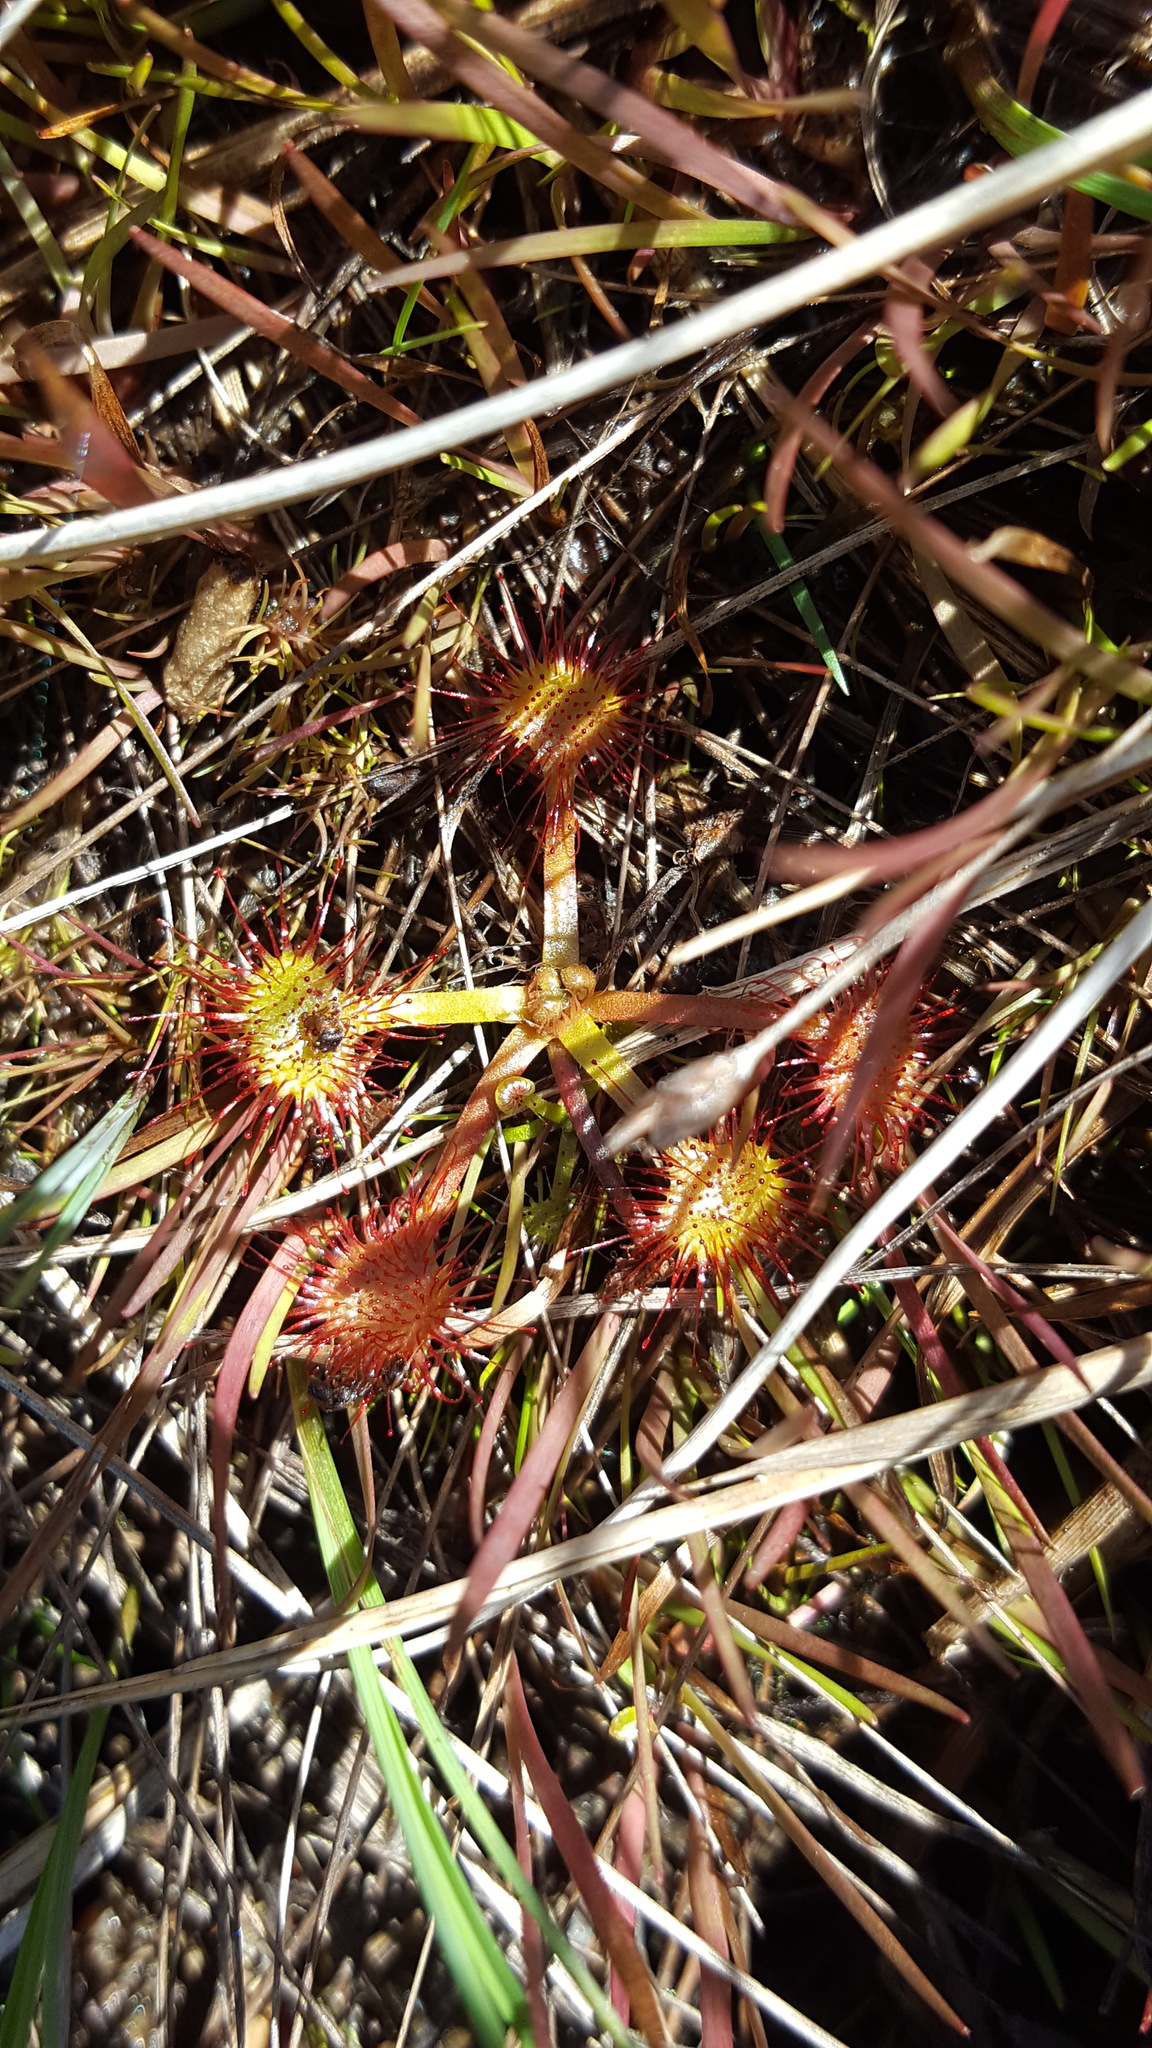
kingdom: Plantae
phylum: Tracheophyta
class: Magnoliopsida
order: Caryophyllales
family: Droseraceae
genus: Drosera
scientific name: Drosera rotundifolia
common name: Round-leaved sundew
